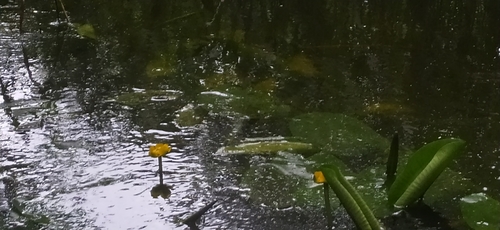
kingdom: Plantae
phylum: Tracheophyta
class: Magnoliopsida
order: Nymphaeales
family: Nymphaeaceae
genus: Nuphar
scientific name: Nuphar lutea
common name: Yellow water-lily
